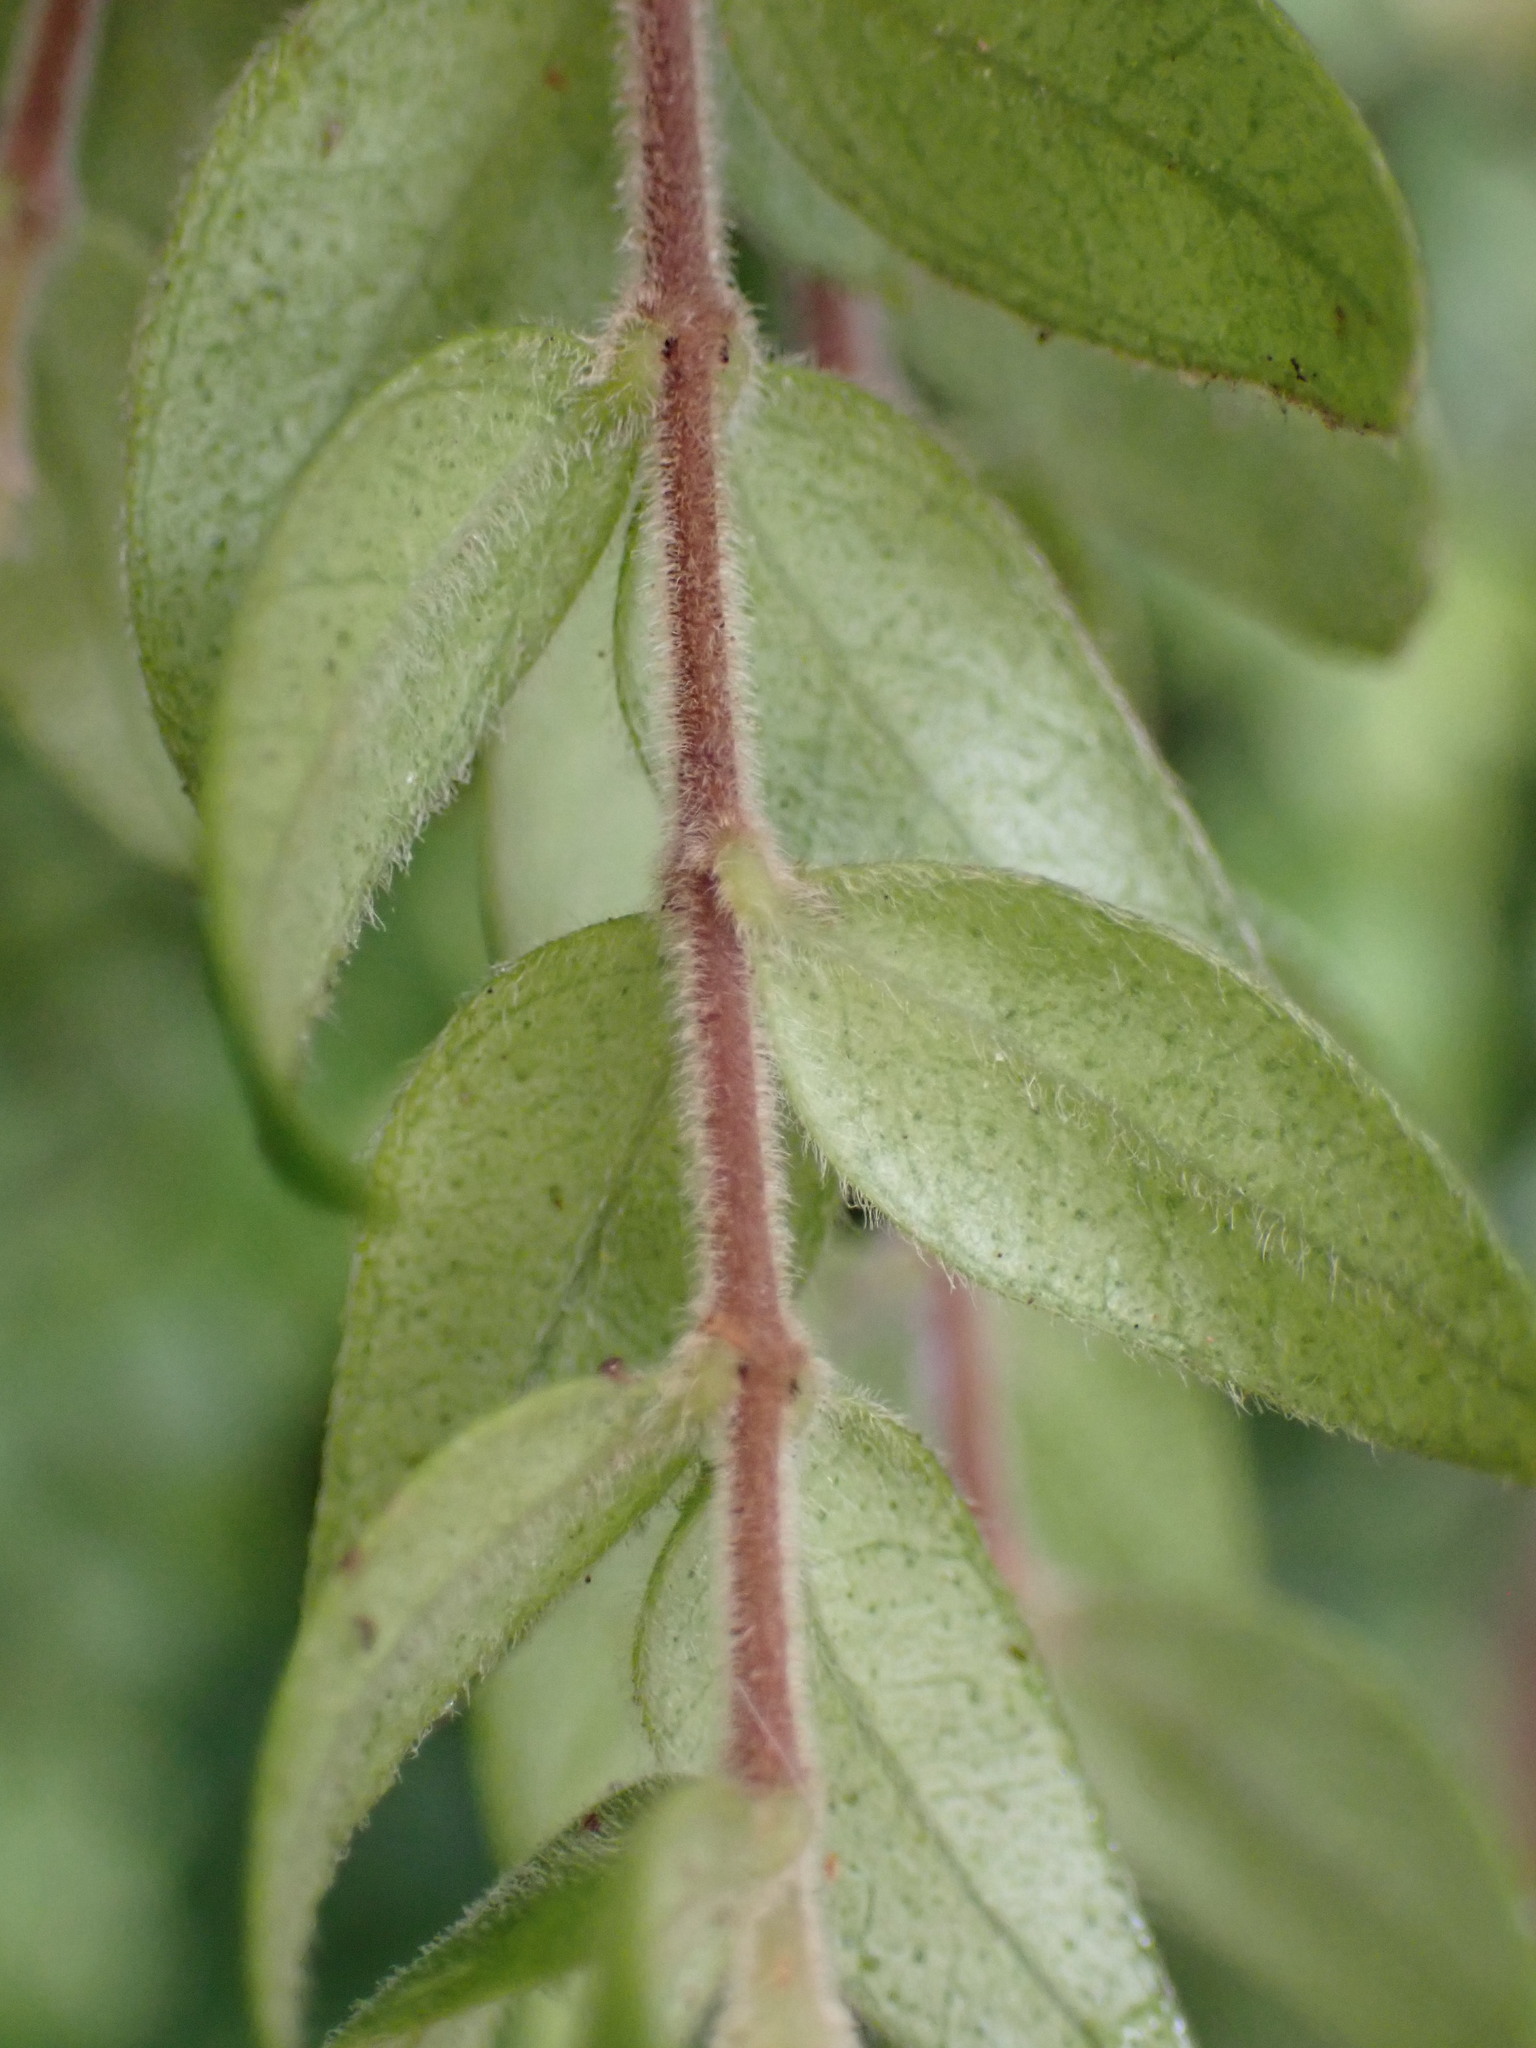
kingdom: Plantae
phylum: Tracheophyta
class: Magnoliopsida
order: Myrtales
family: Myrtaceae
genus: Metrosideros
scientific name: Metrosideros colensoi
